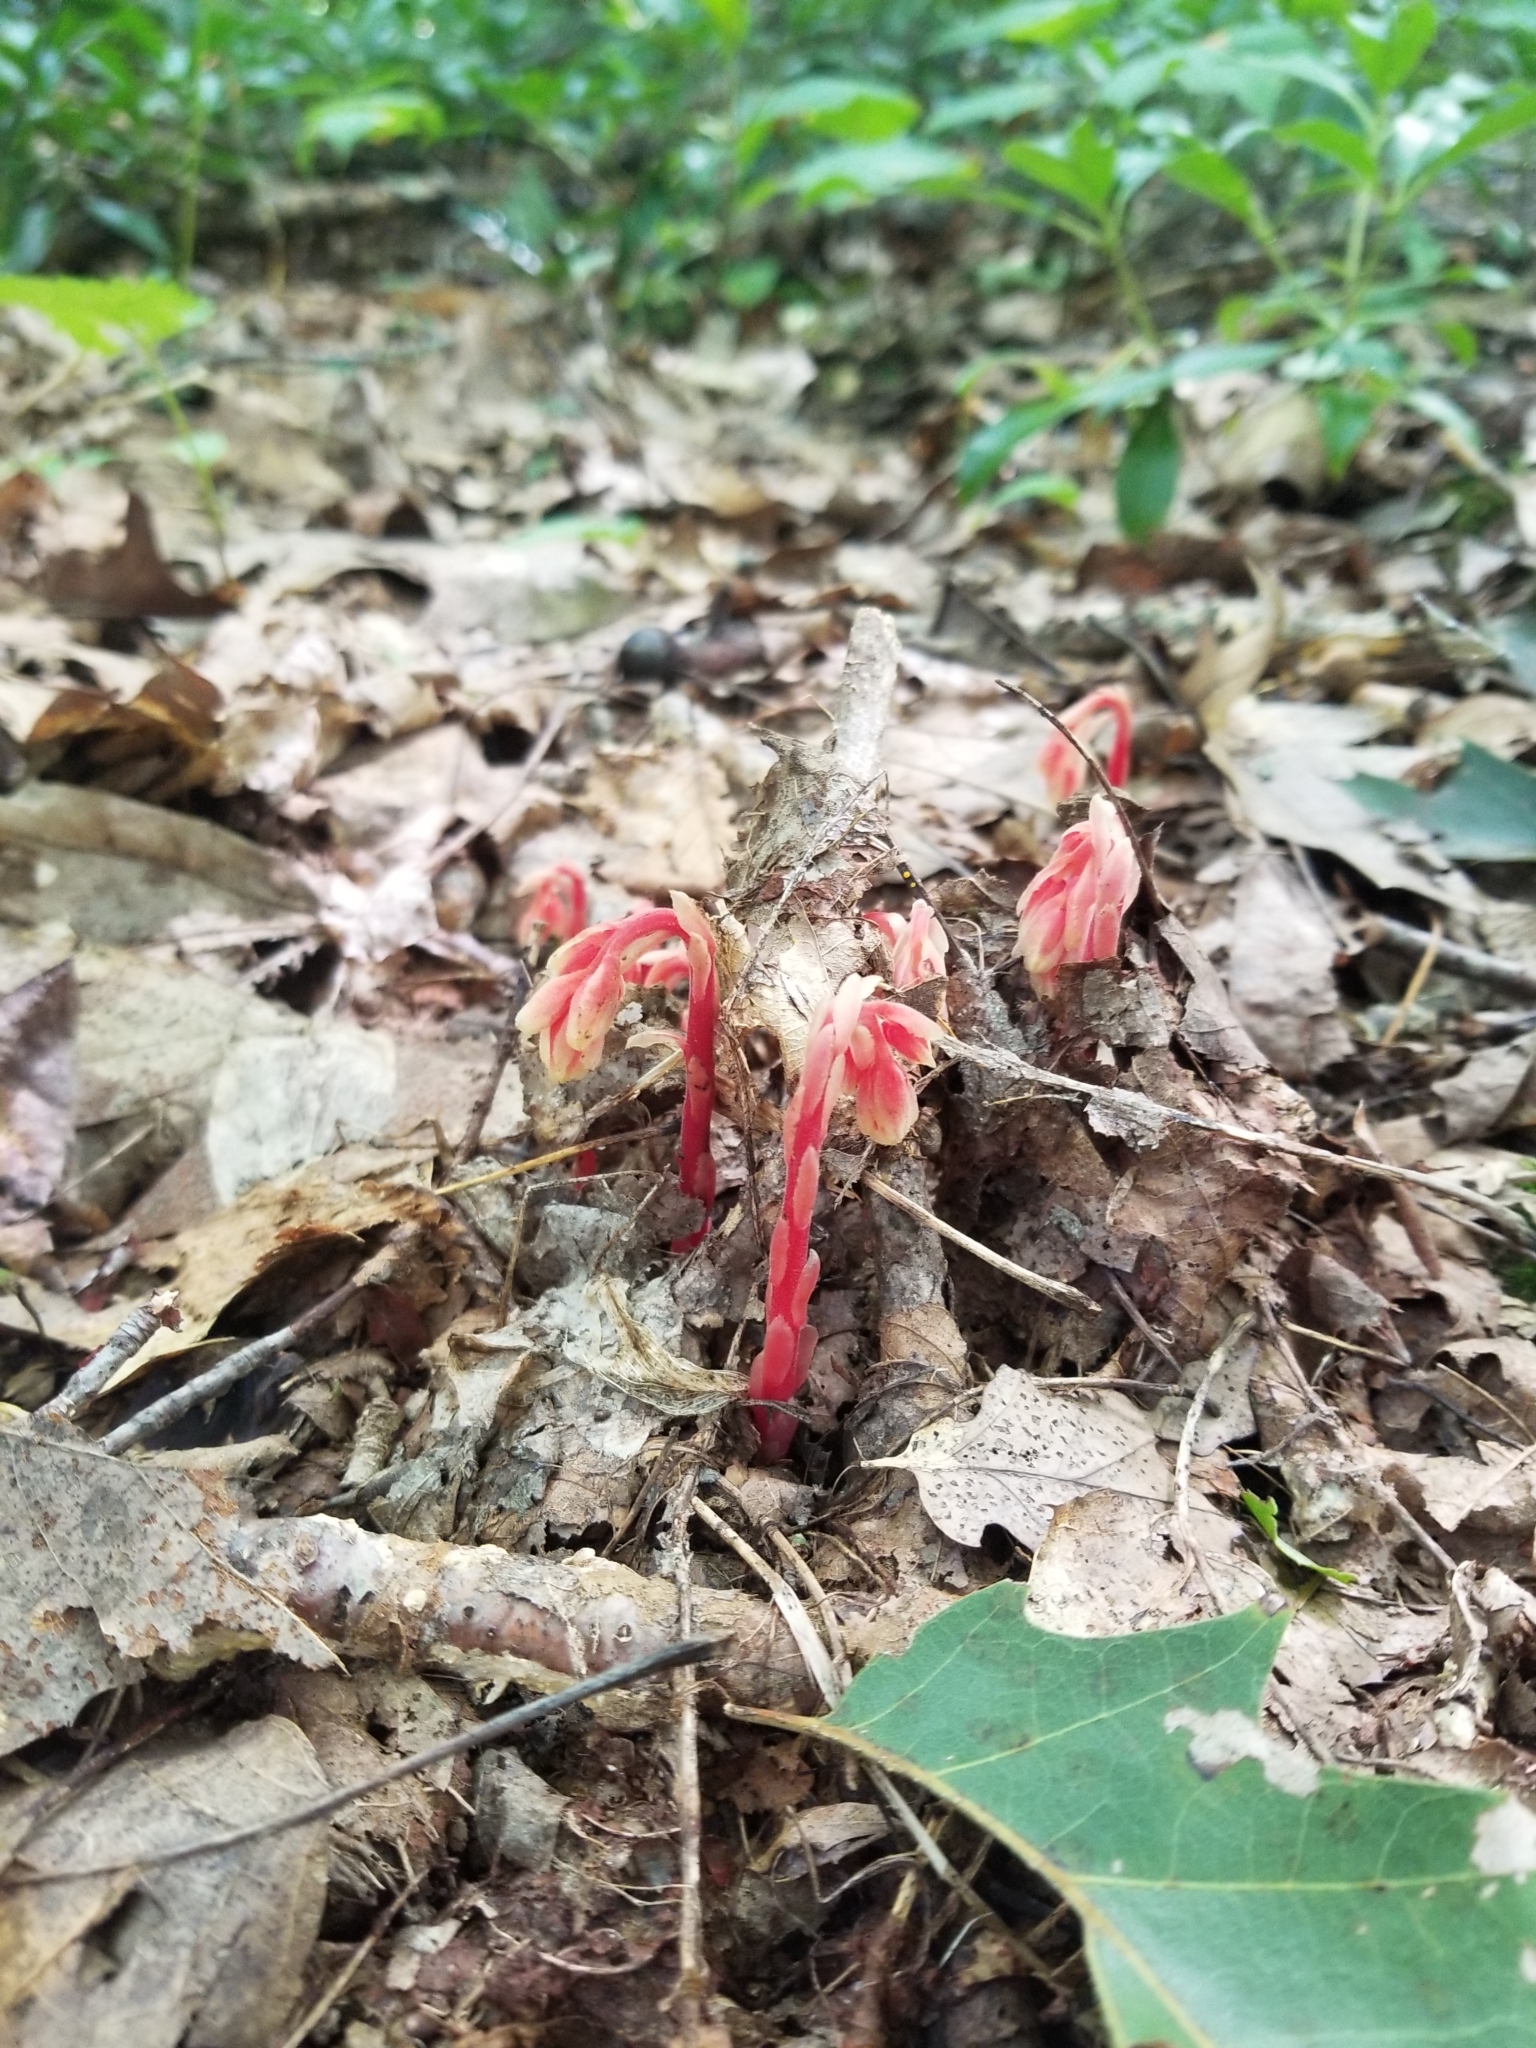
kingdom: Plantae
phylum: Tracheophyta
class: Magnoliopsida
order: Ericales
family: Ericaceae
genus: Hypopitys
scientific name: Hypopitys monotropa
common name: Yellow bird's-nest
